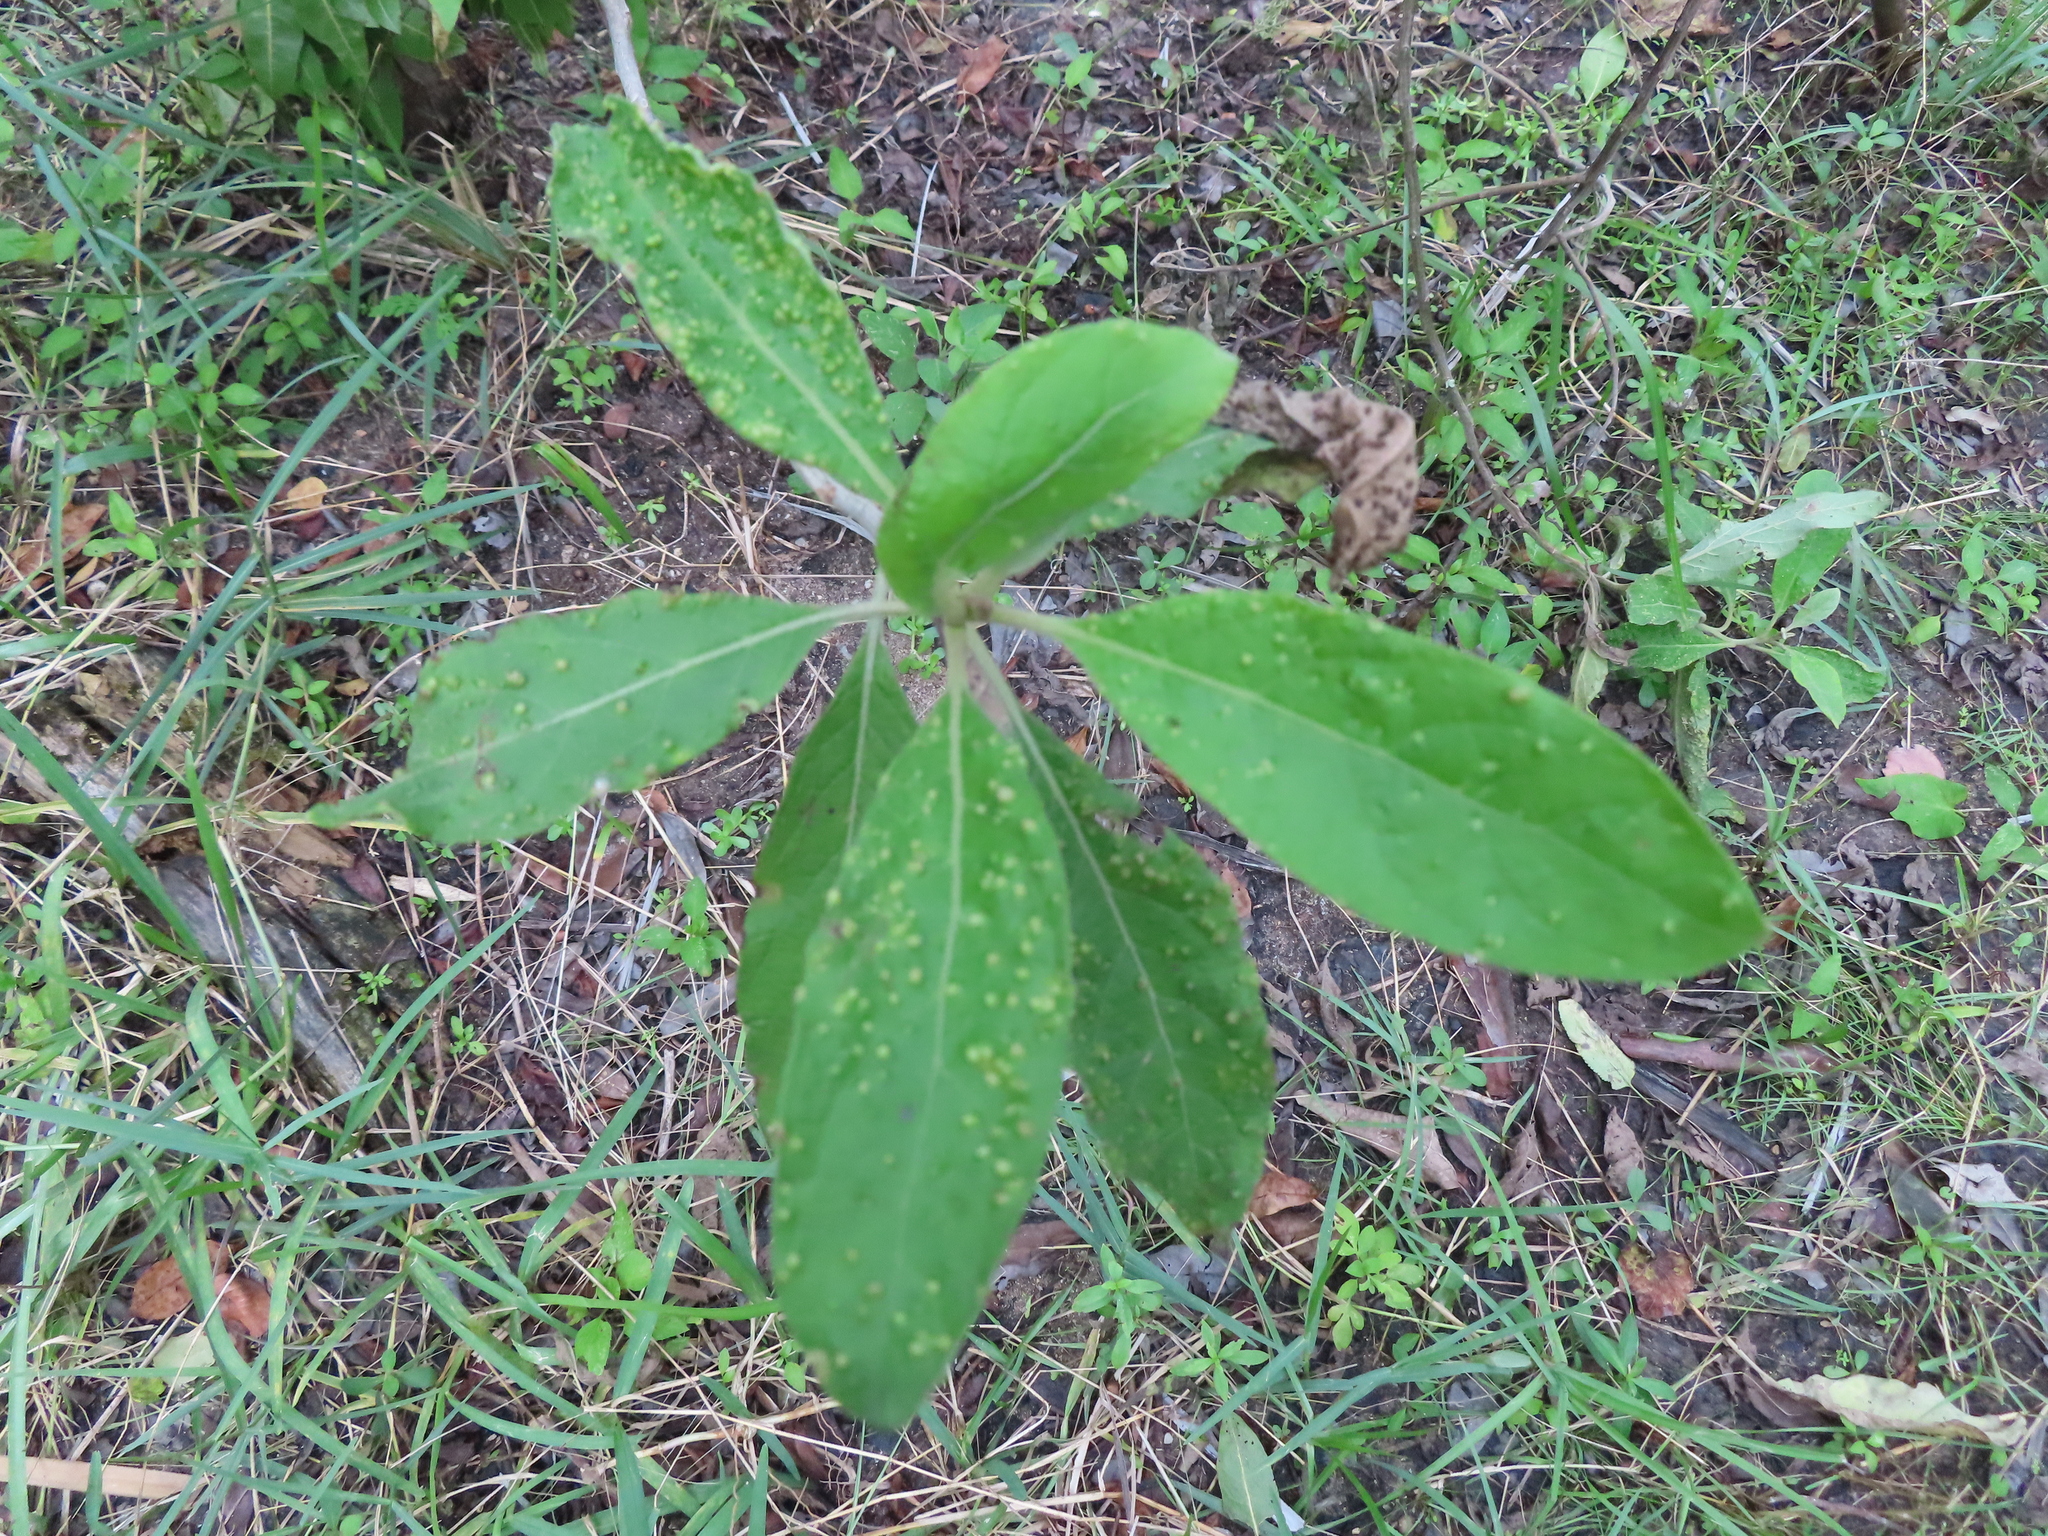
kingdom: Plantae
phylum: Tracheophyta
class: Magnoliopsida
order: Asterales
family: Asteraceae
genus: Pluchea
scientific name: Pluchea carolinensis
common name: Marsh fleabane
